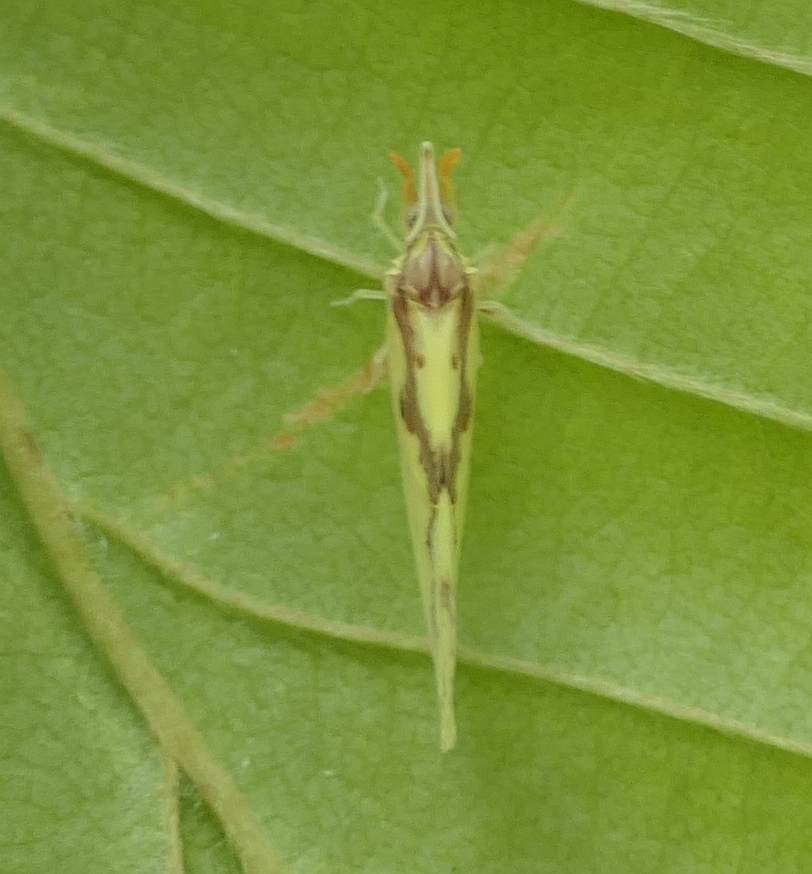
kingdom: Animalia
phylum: Arthropoda
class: Insecta
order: Hemiptera
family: Derbidae
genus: Otiocerus
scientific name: Otiocerus wolfii
